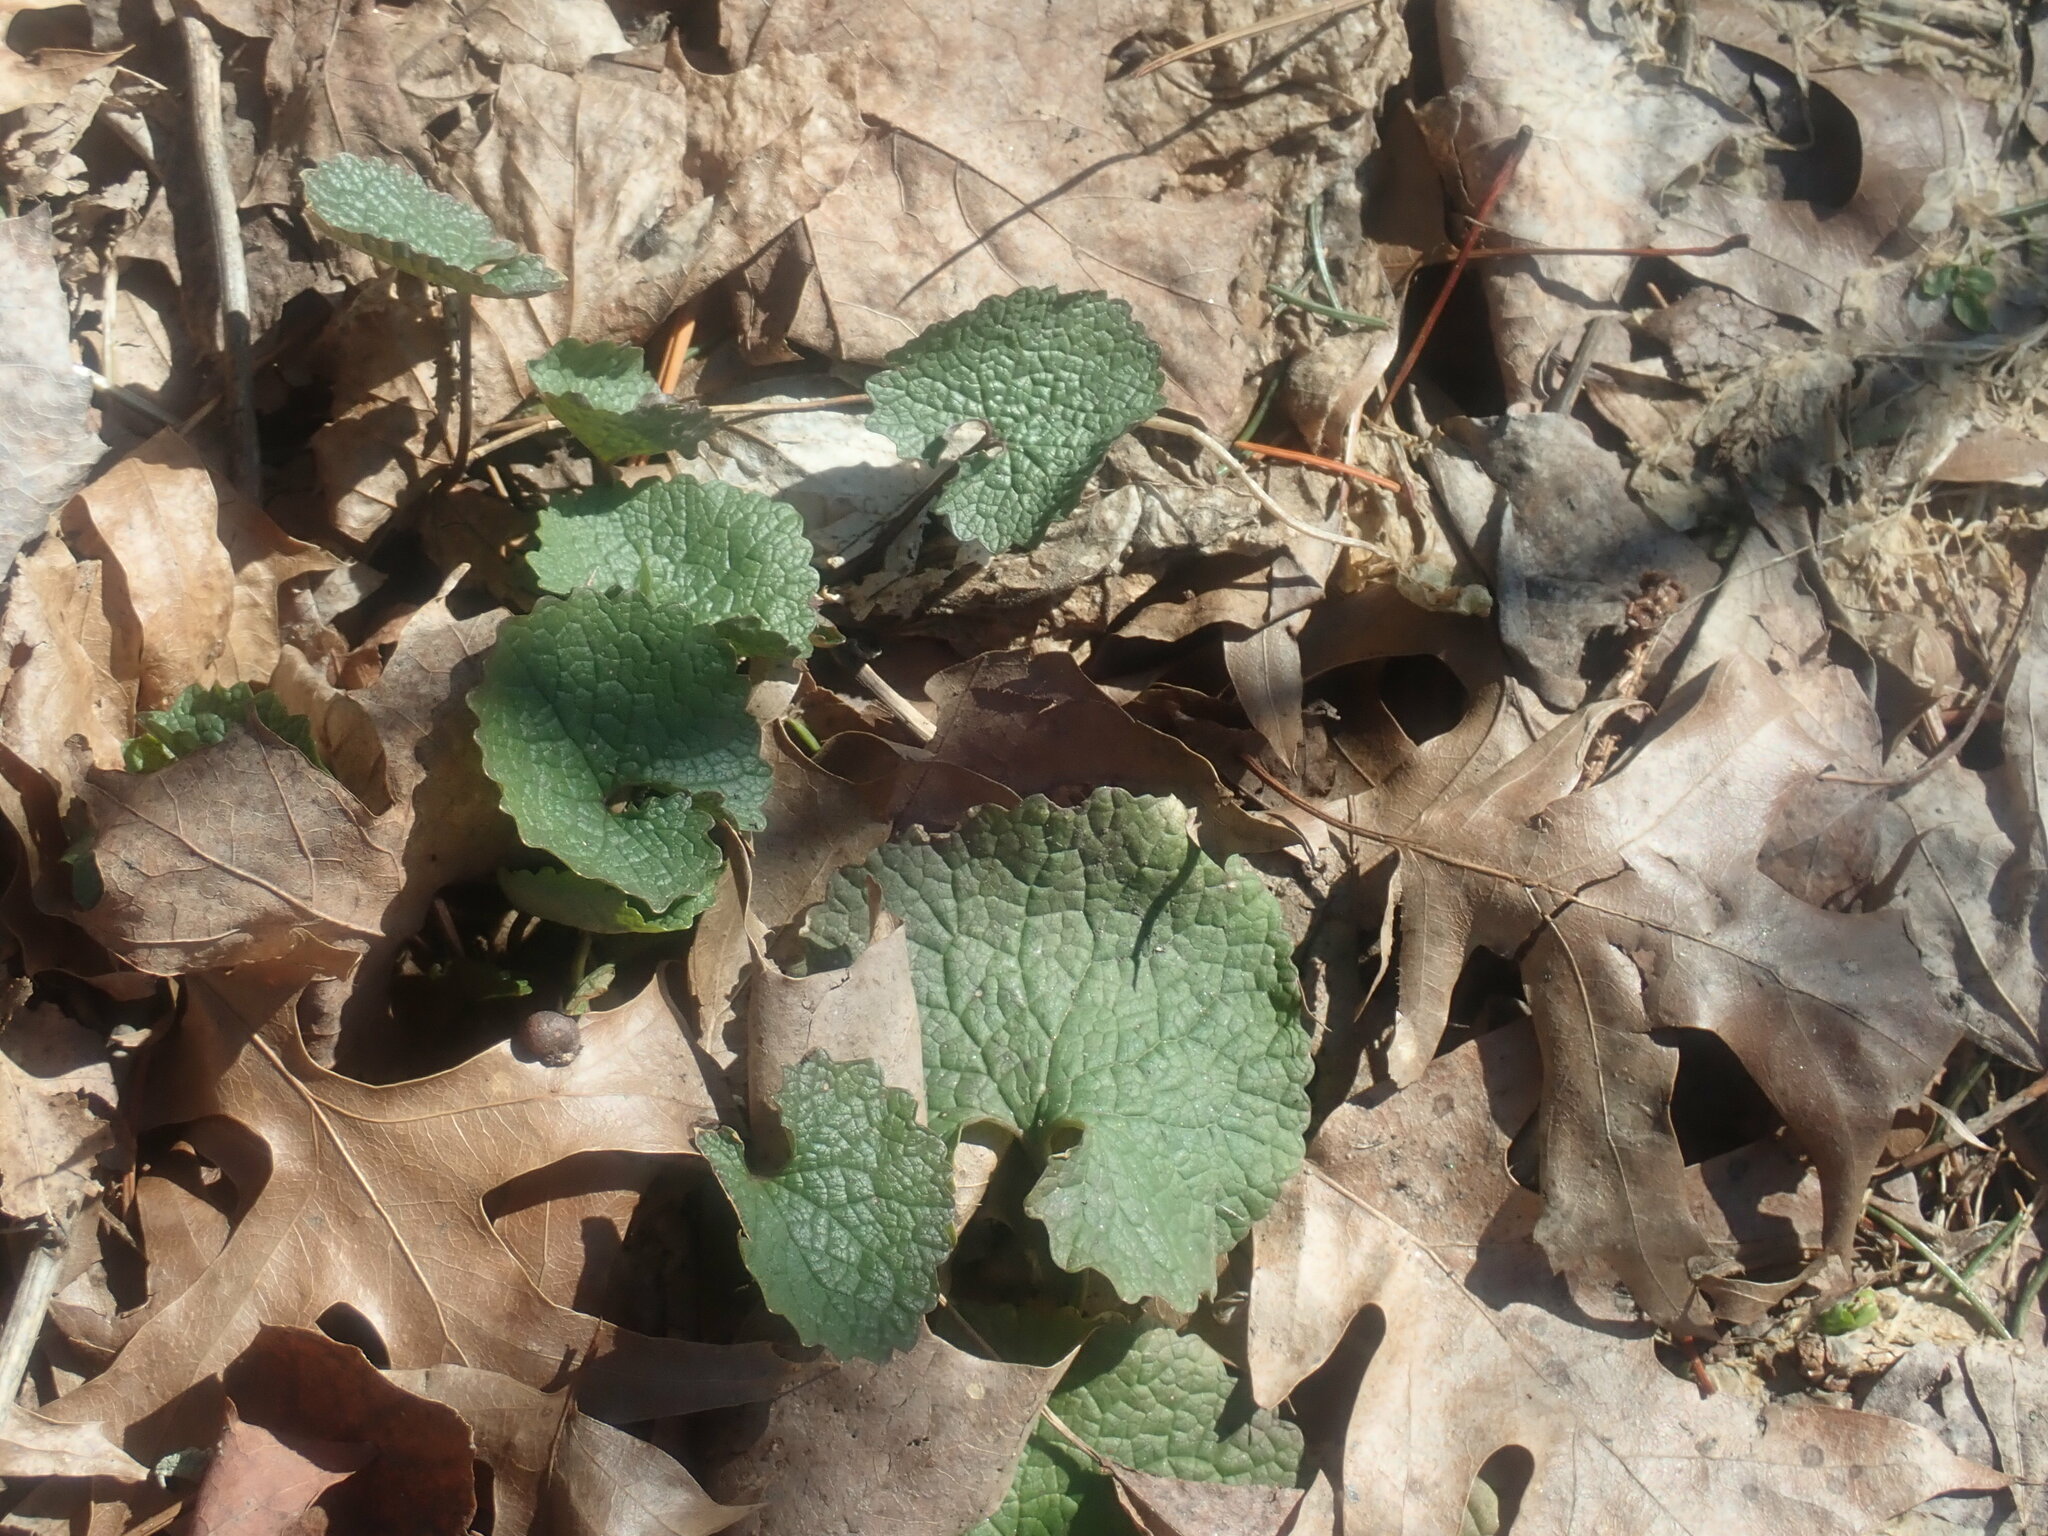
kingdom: Plantae
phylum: Tracheophyta
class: Magnoliopsida
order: Brassicales
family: Brassicaceae
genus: Alliaria
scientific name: Alliaria petiolata
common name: Garlic mustard
